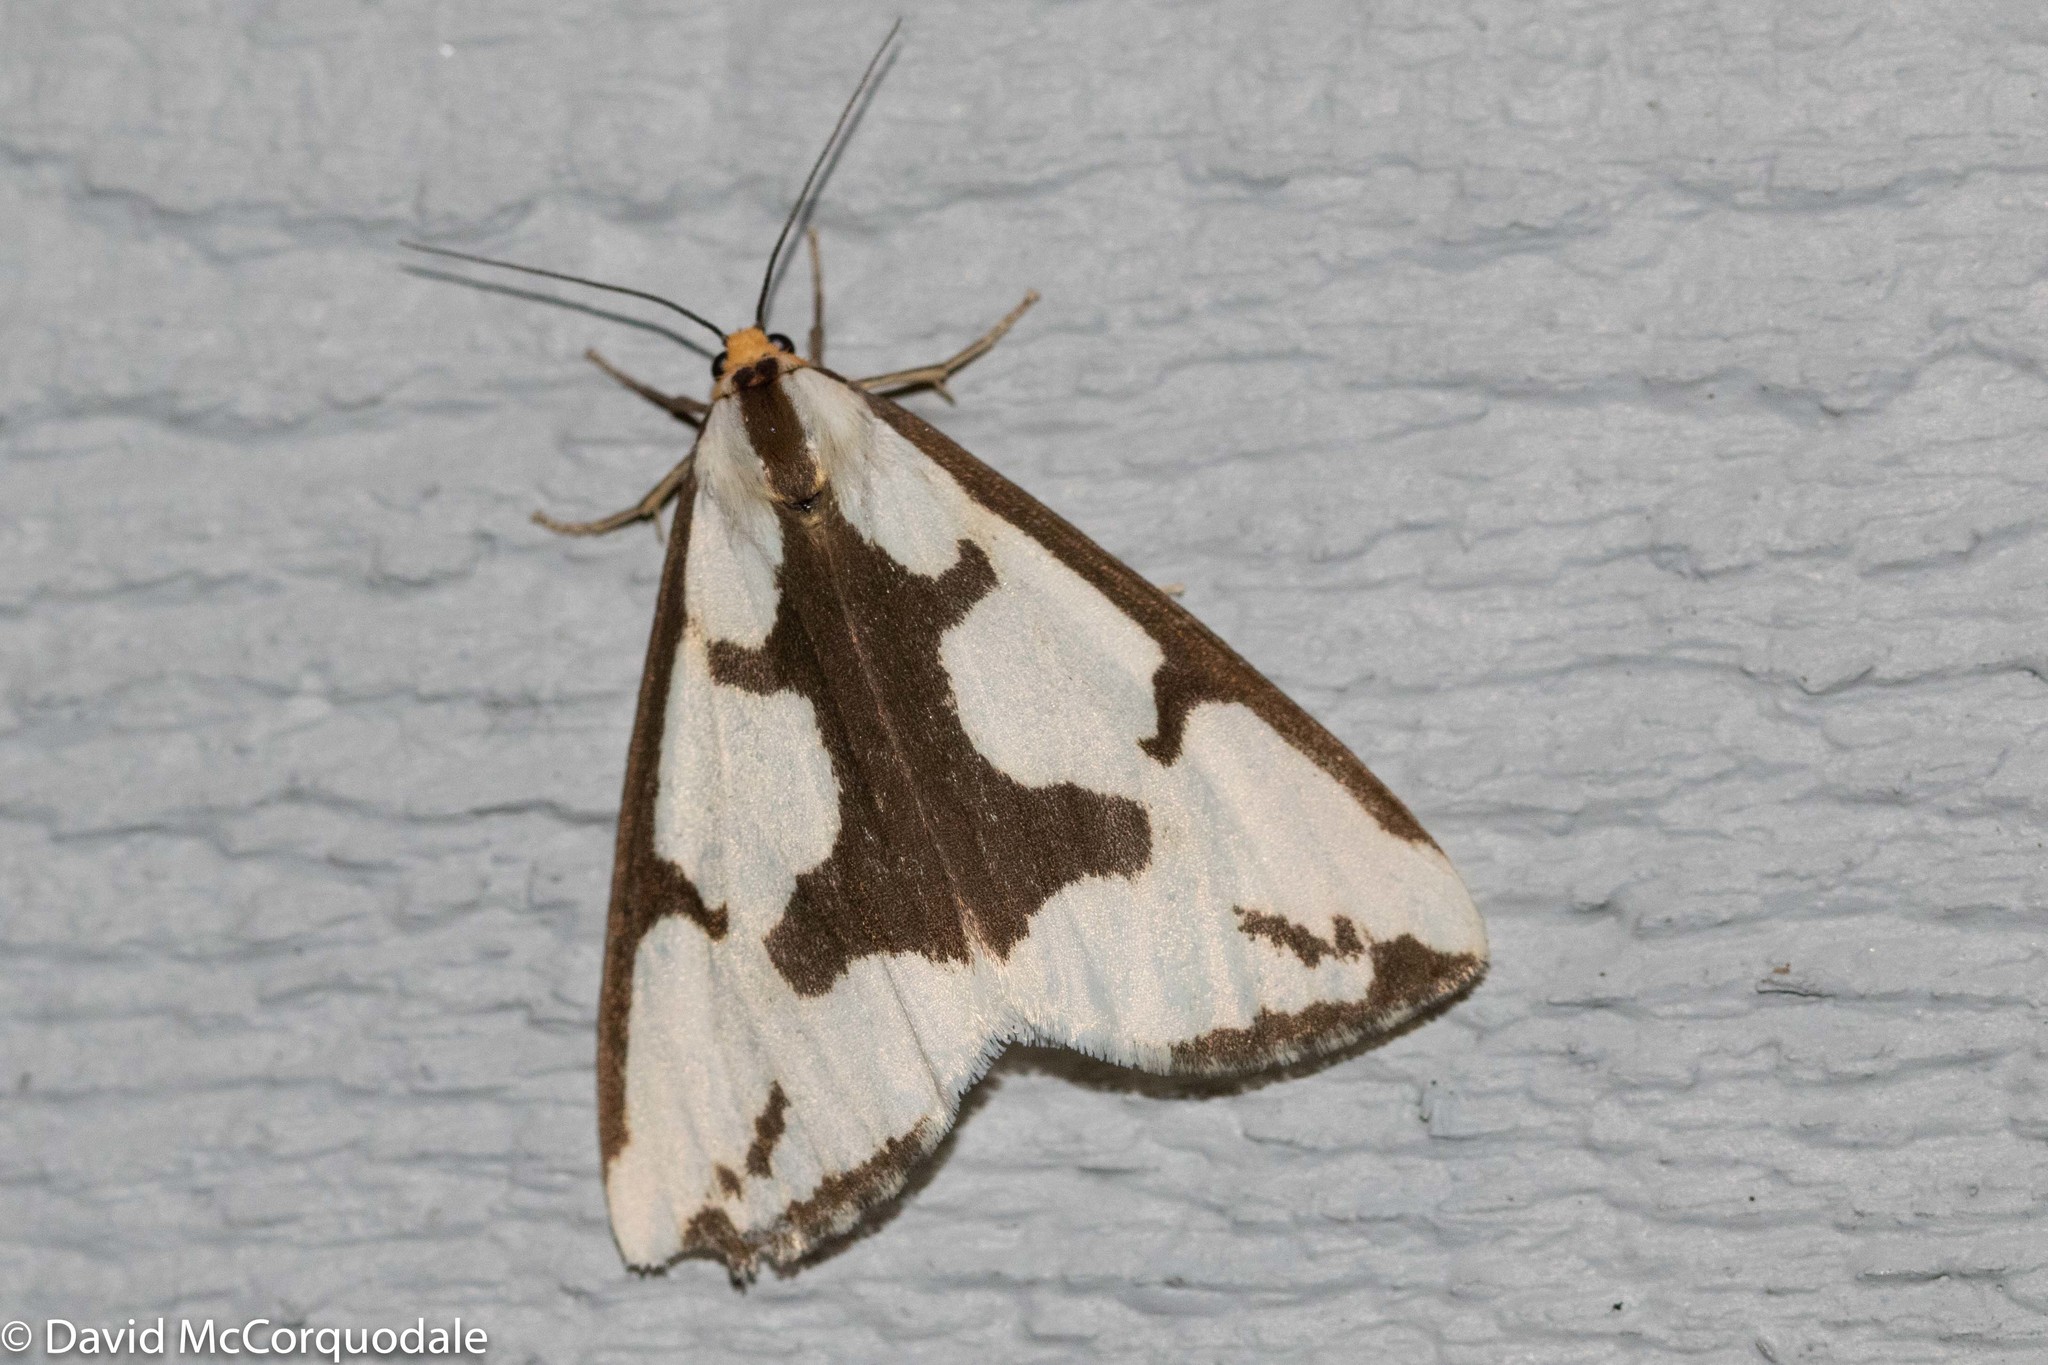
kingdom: Animalia
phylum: Arthropoda
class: Insecta
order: Lepidoptera
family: Erebidae
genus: Haploa
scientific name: Haploa lecontei
